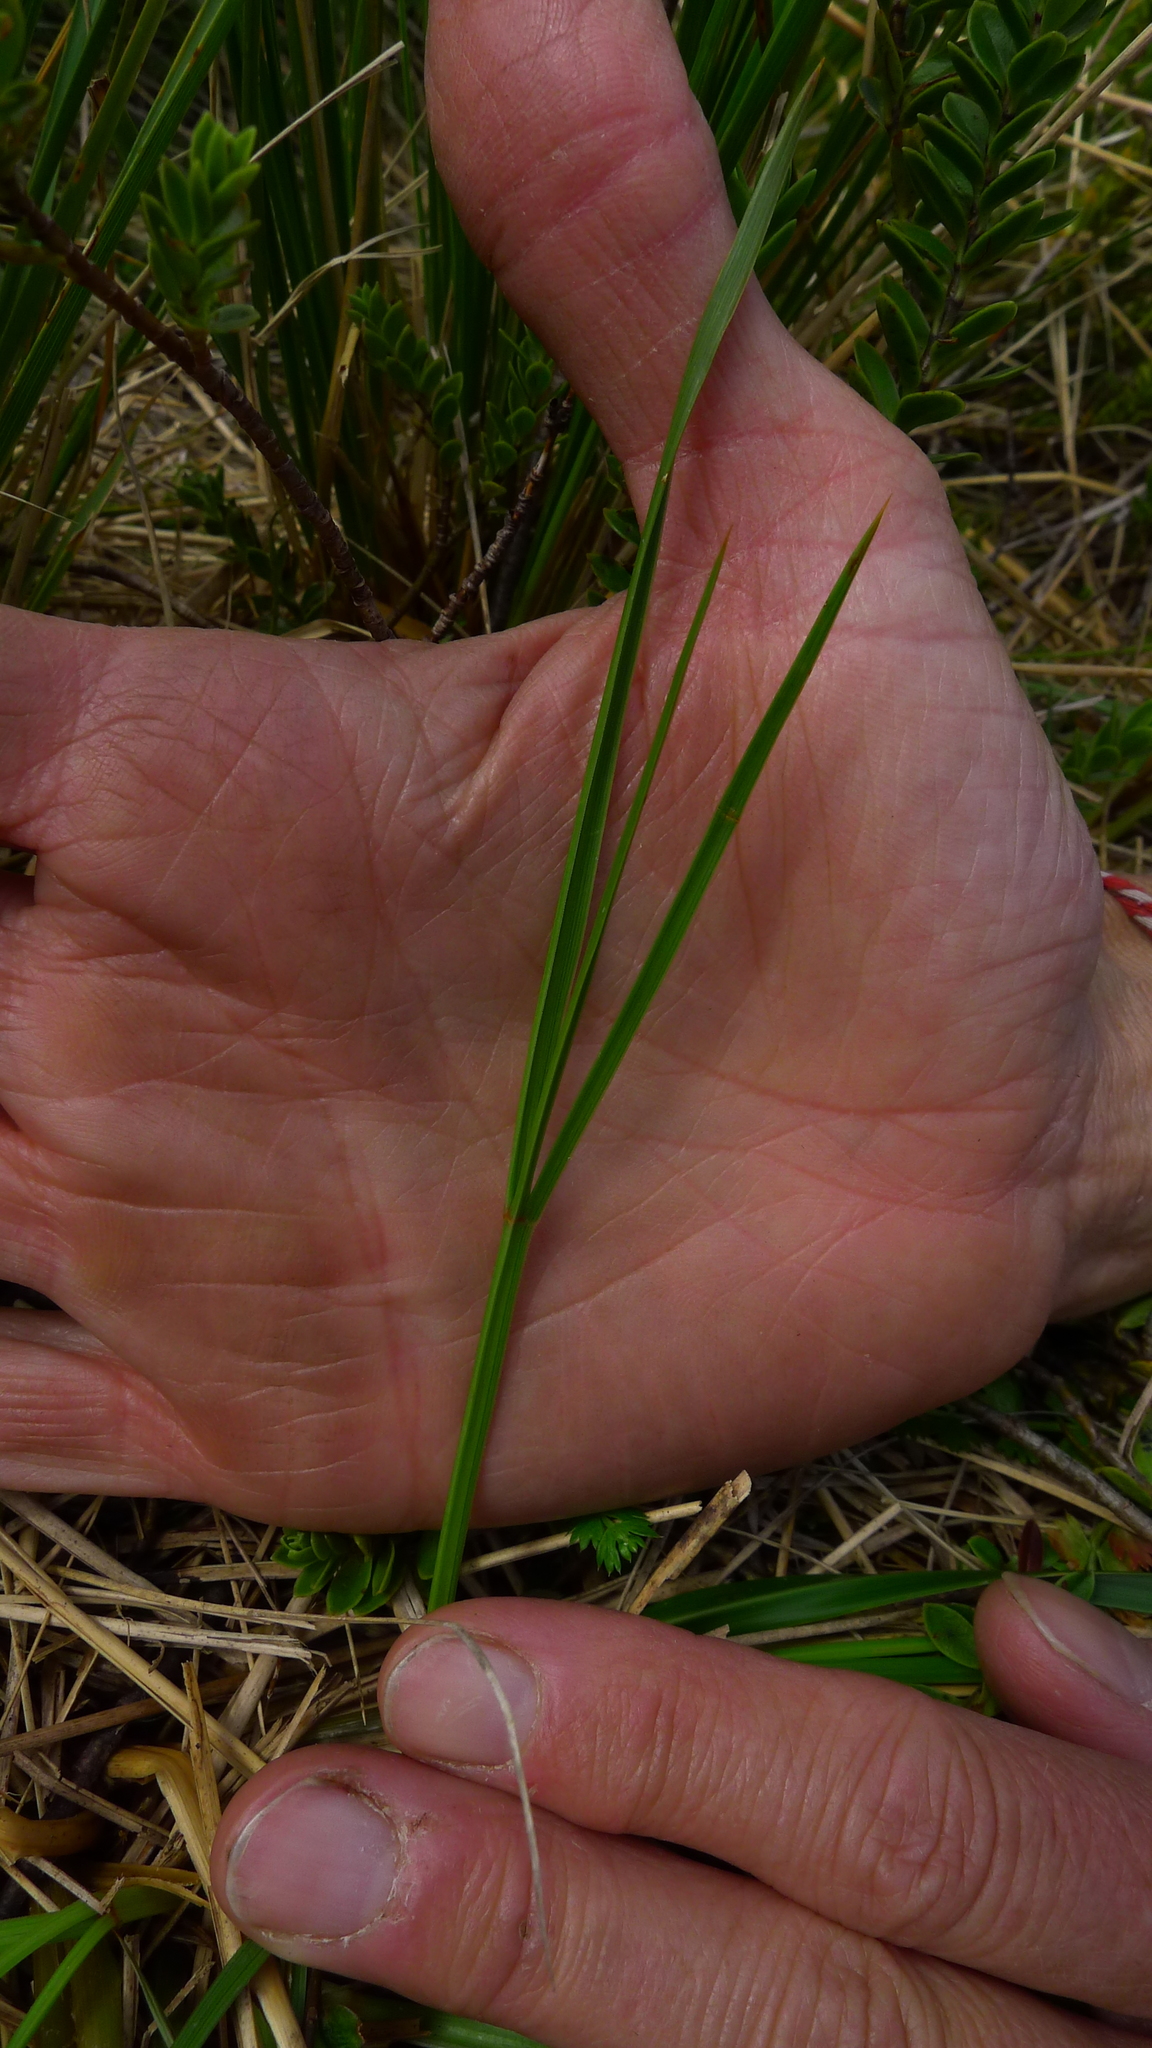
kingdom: Plantae
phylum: Tracheophyta
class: Magnoliopsida
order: Apiales
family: Apiaceae
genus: Aciphylla
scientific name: Aciphylla anomala
